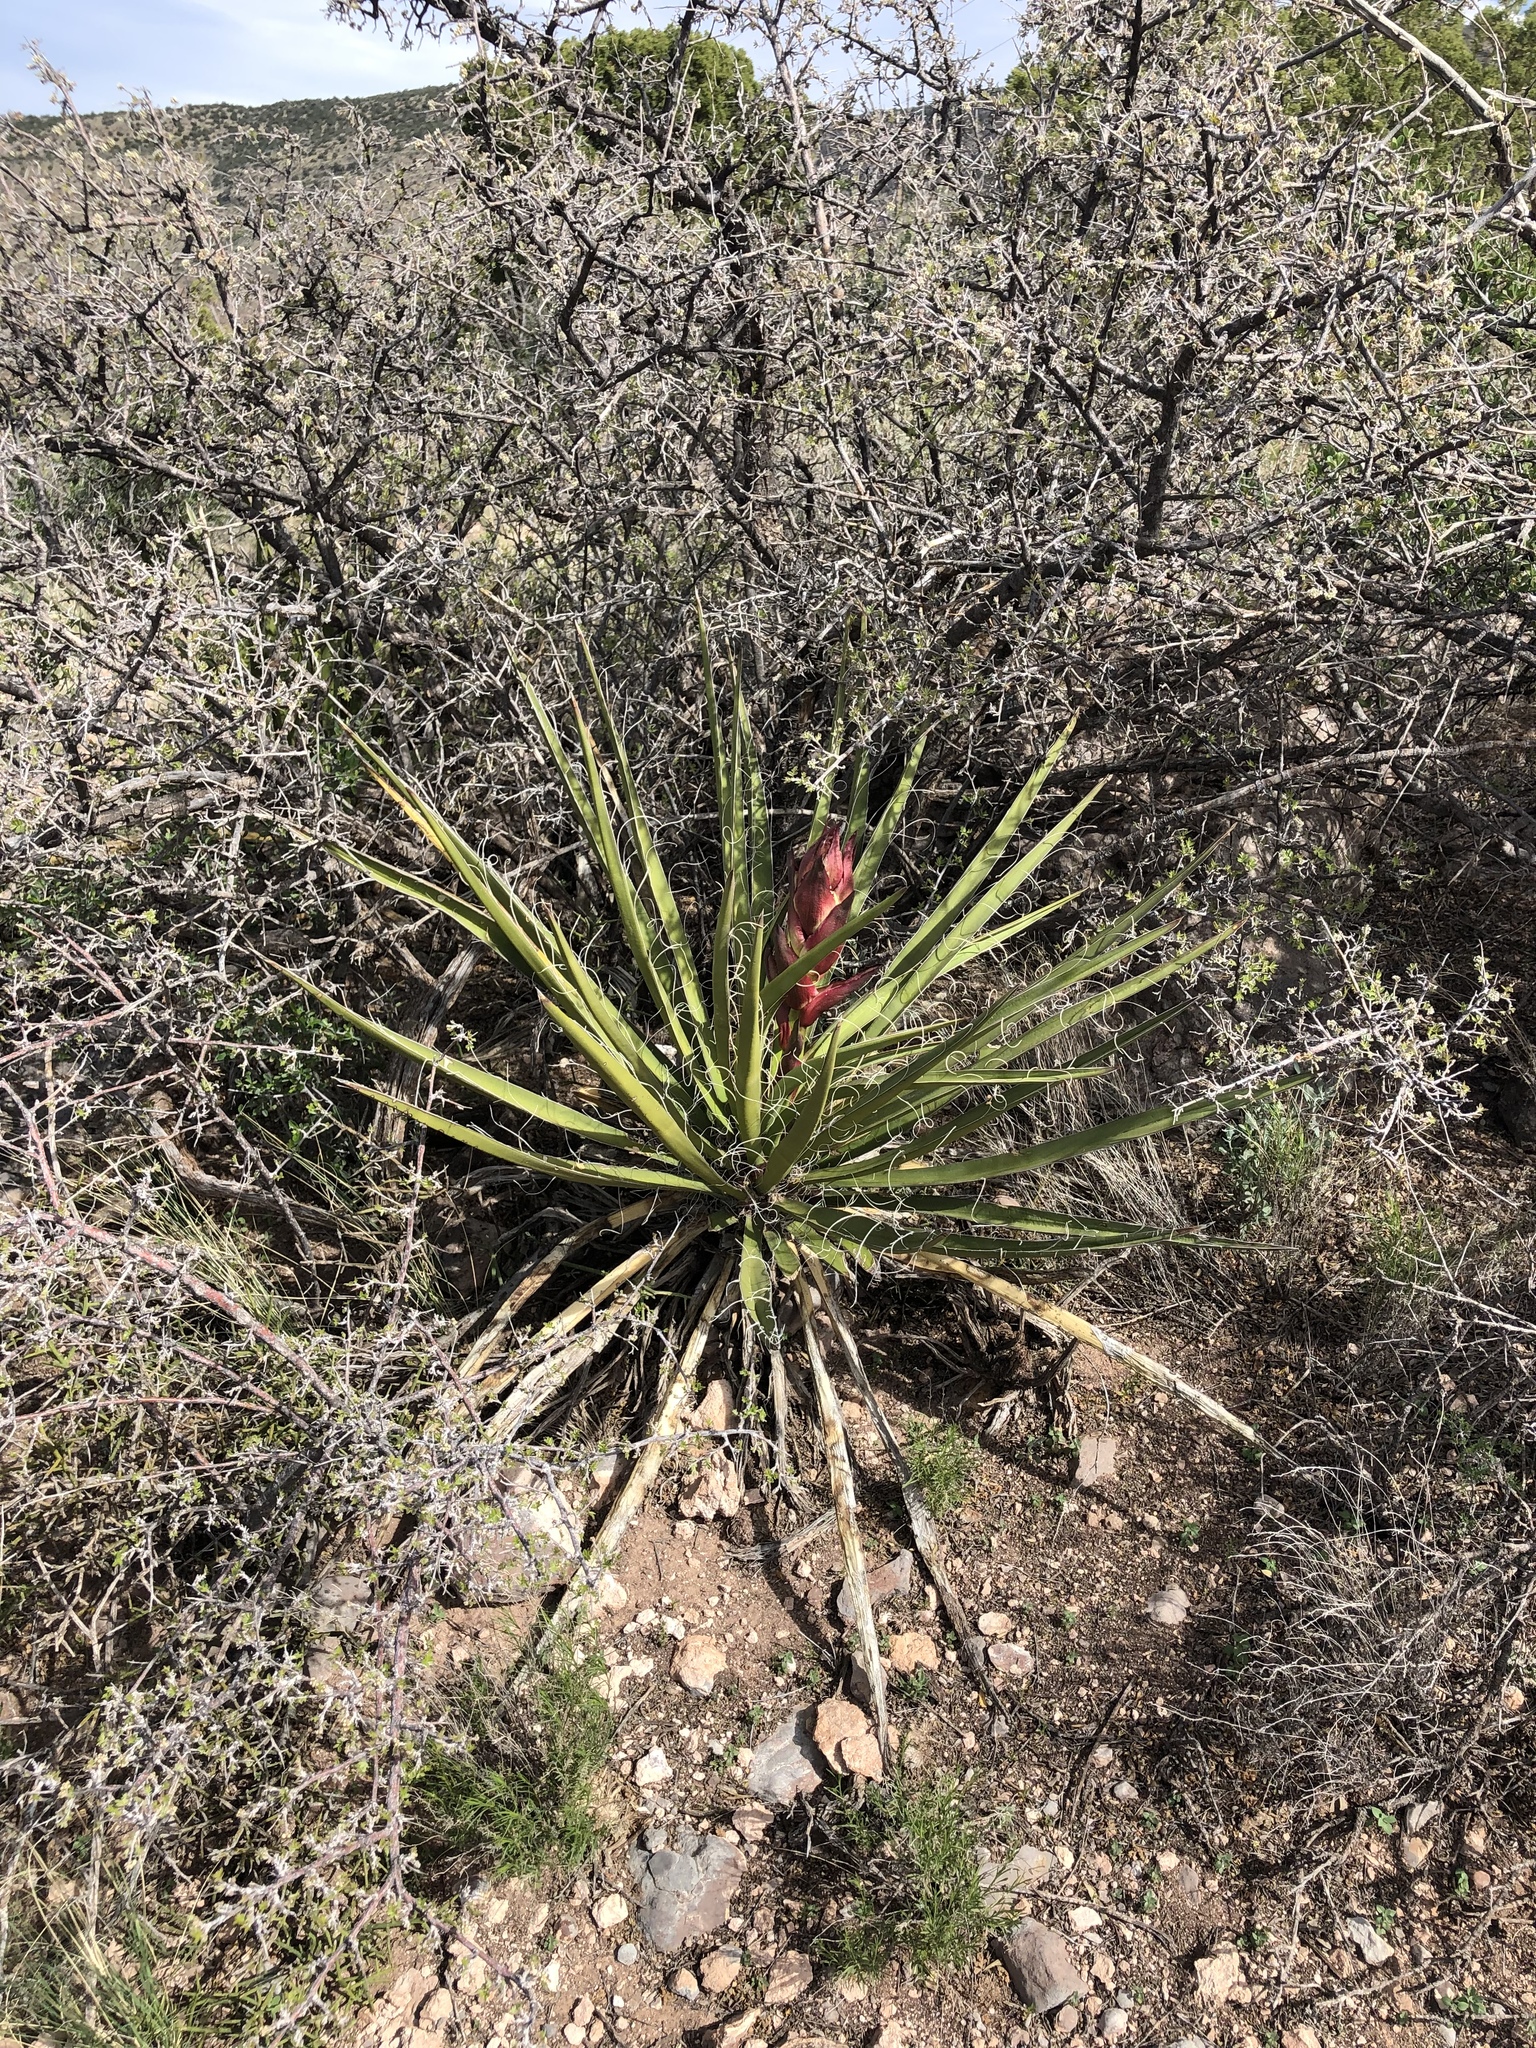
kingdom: Plantae
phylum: Tracheophyta
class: Liliopsida
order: Asparagales
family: Asparagaceae
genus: Yucca
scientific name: Yucca baccata
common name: Banana yucca
